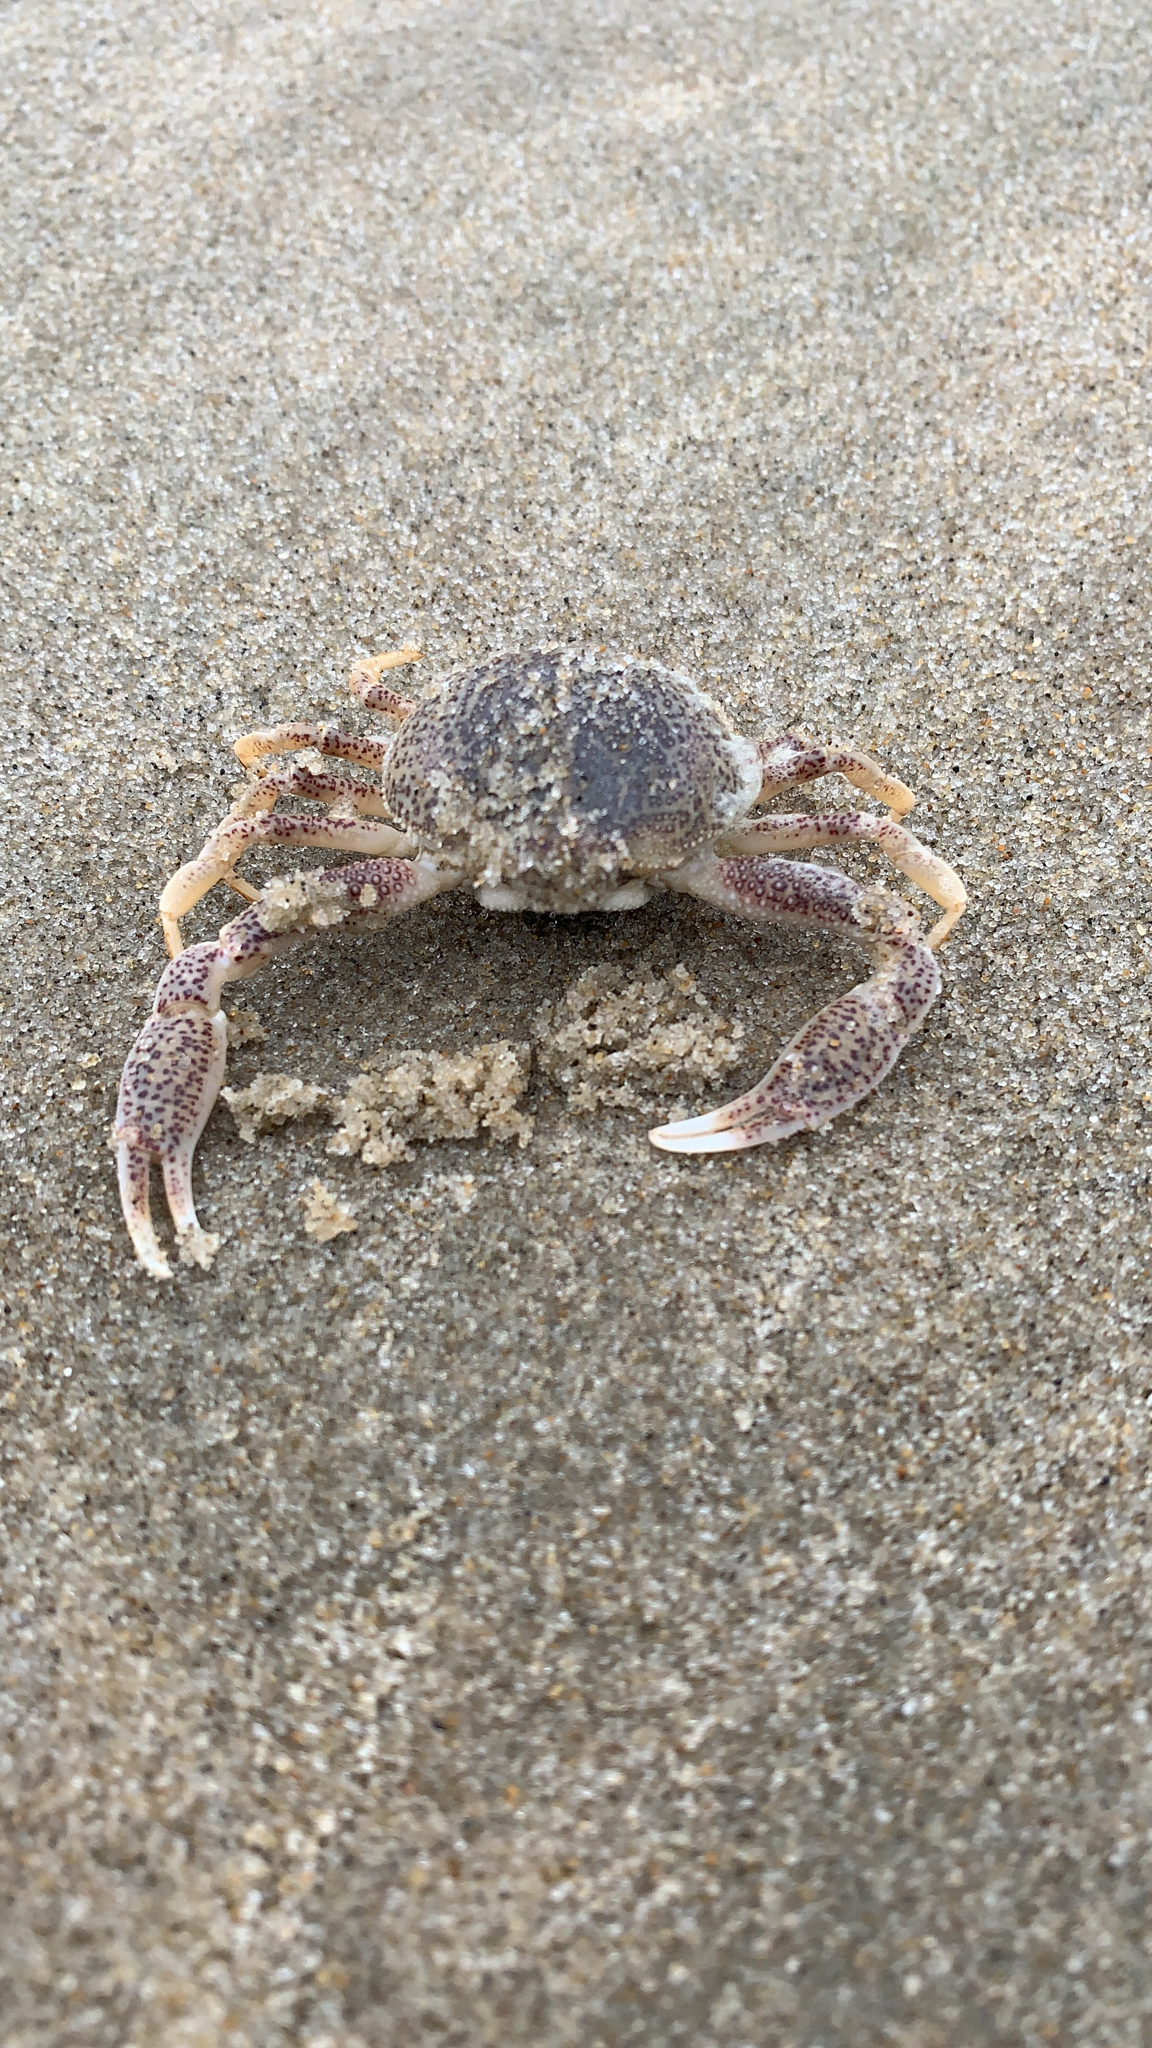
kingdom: Animalia
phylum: Arthropoda
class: Malacostraca
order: Decapoda
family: Leucosiidae
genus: Persephona
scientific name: Persephona aquilonaris
